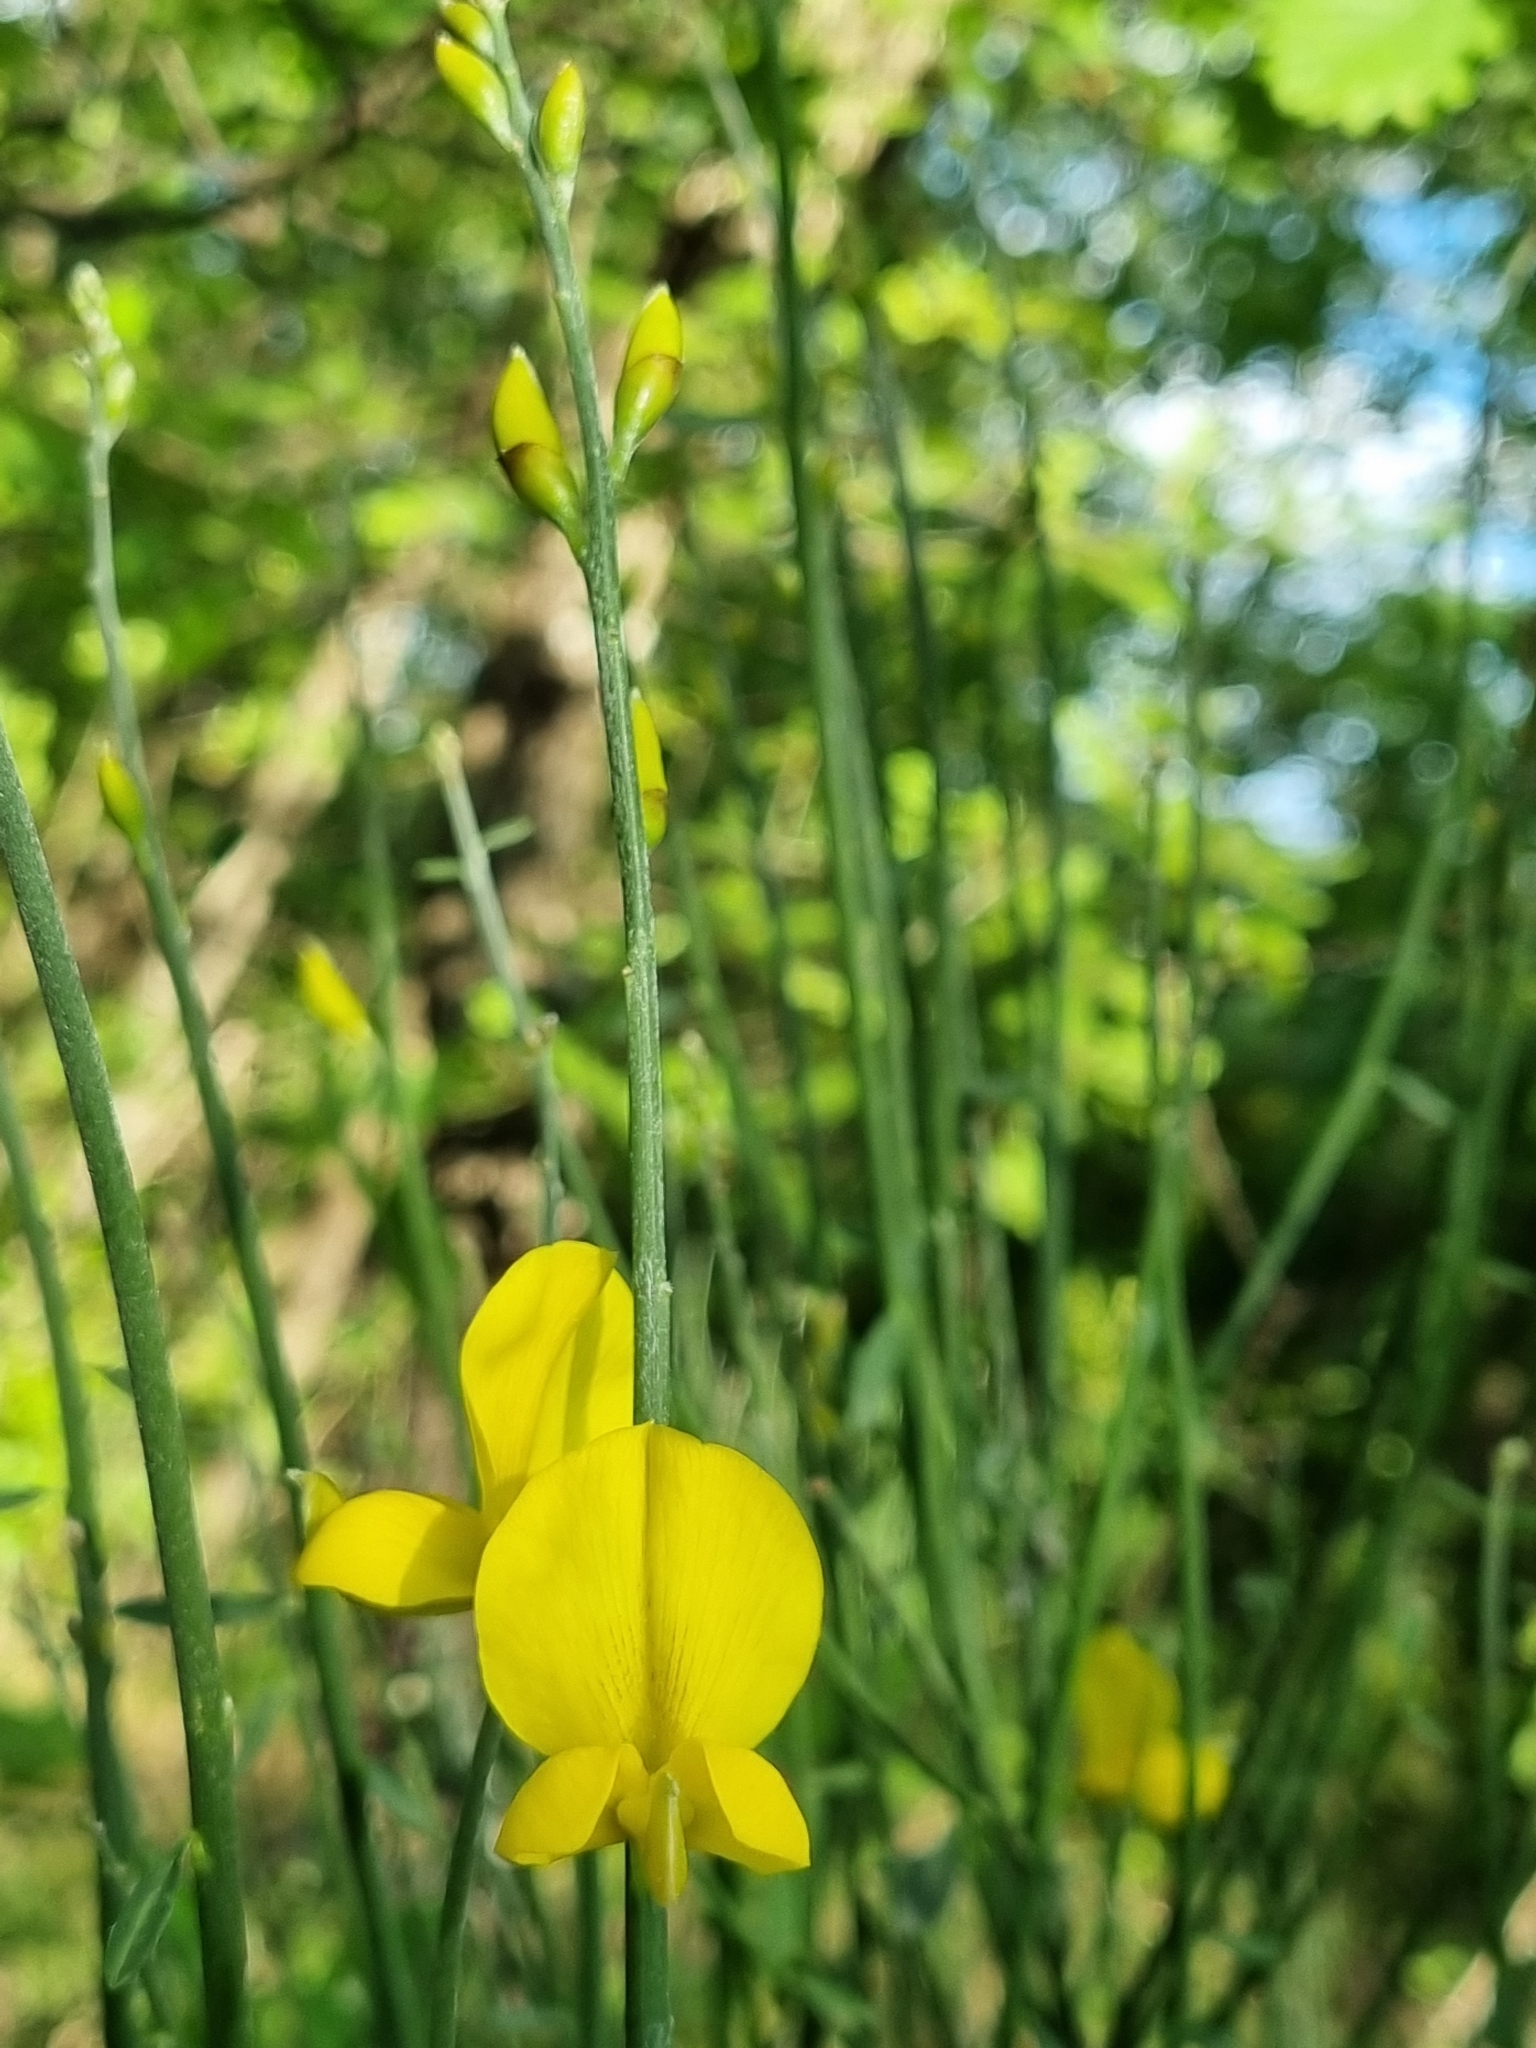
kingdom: Plantae
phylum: Tracheophyta
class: Magnoliopsida
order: Fabales
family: Fabaceae
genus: Spartium
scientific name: Spartium junceum
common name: Spanish broom
